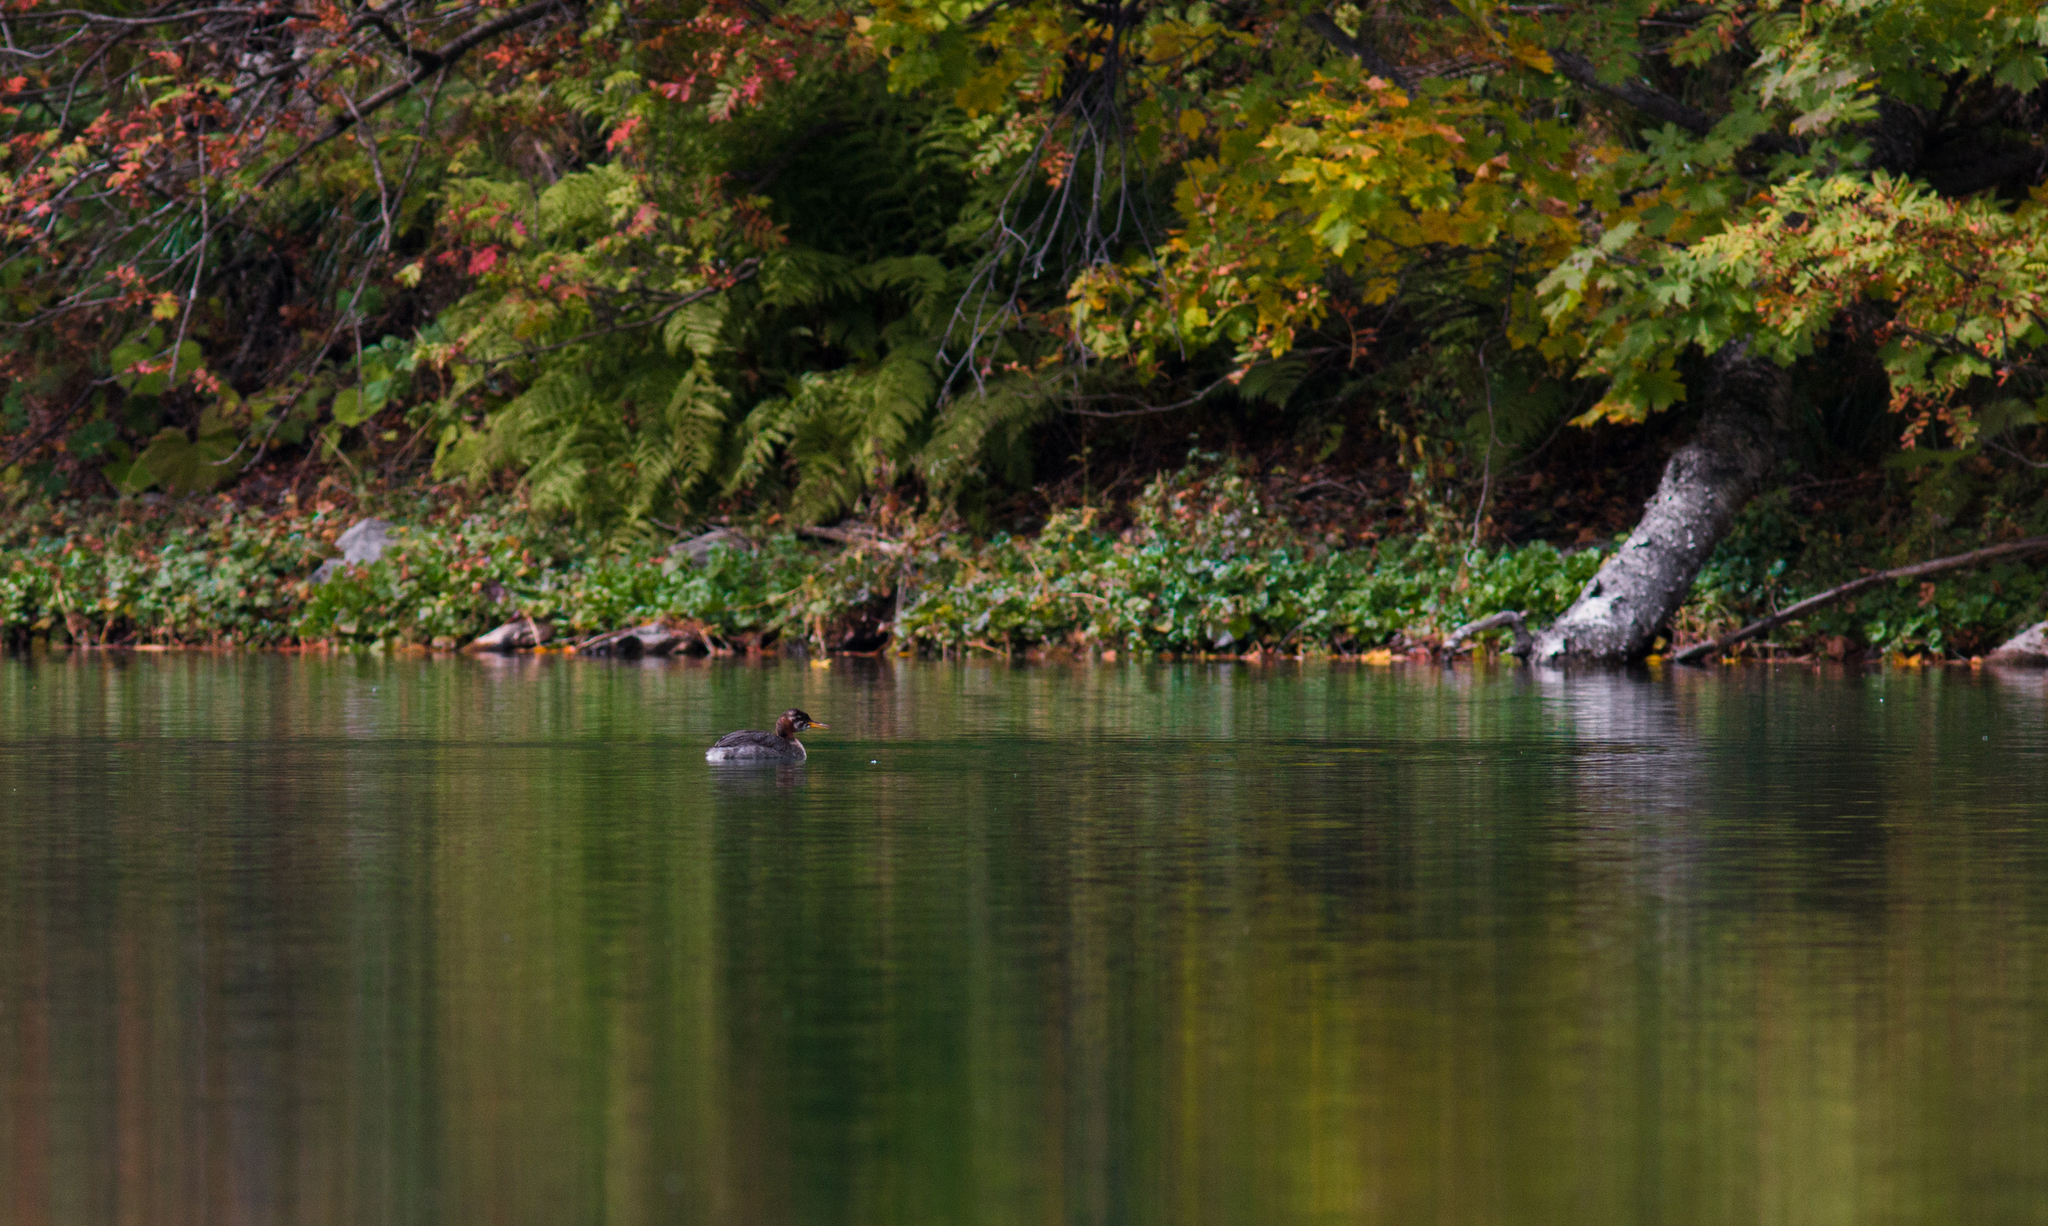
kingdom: Animalia
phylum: Chordata
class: Aves
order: Podicipediformes
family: Podicipedidae
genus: Podiceps
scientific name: Podiceps grisegena
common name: Red-necked grebe
